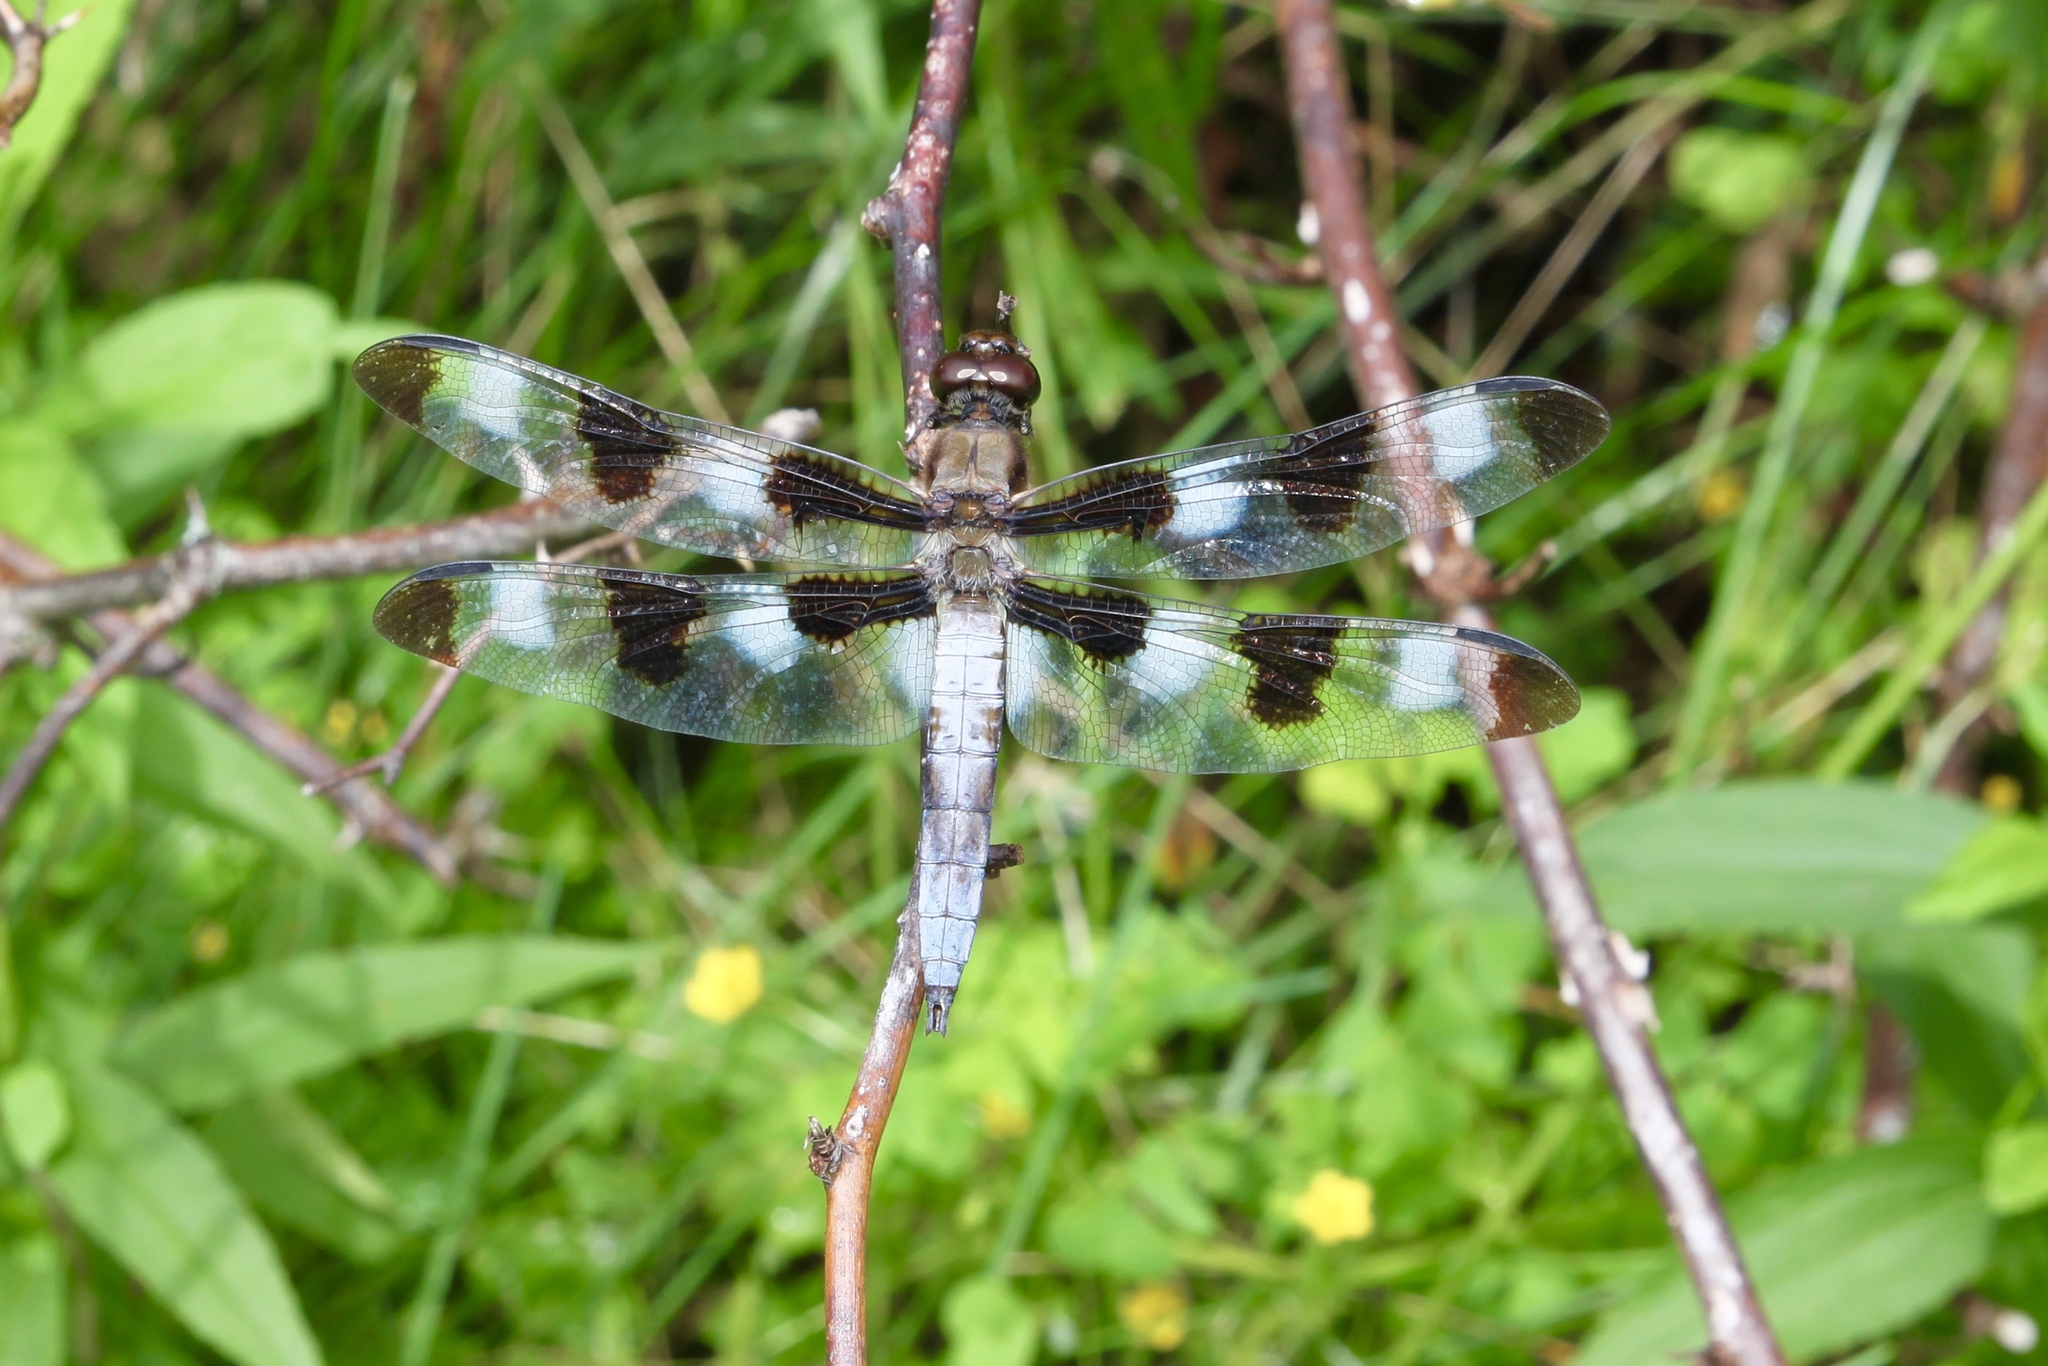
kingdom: Animalia
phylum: Arthropoda
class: Insecta
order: Odonata
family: Libellulidae
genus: Libellula
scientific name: Libellula pulchella
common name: Twelve-spotted skimmer
